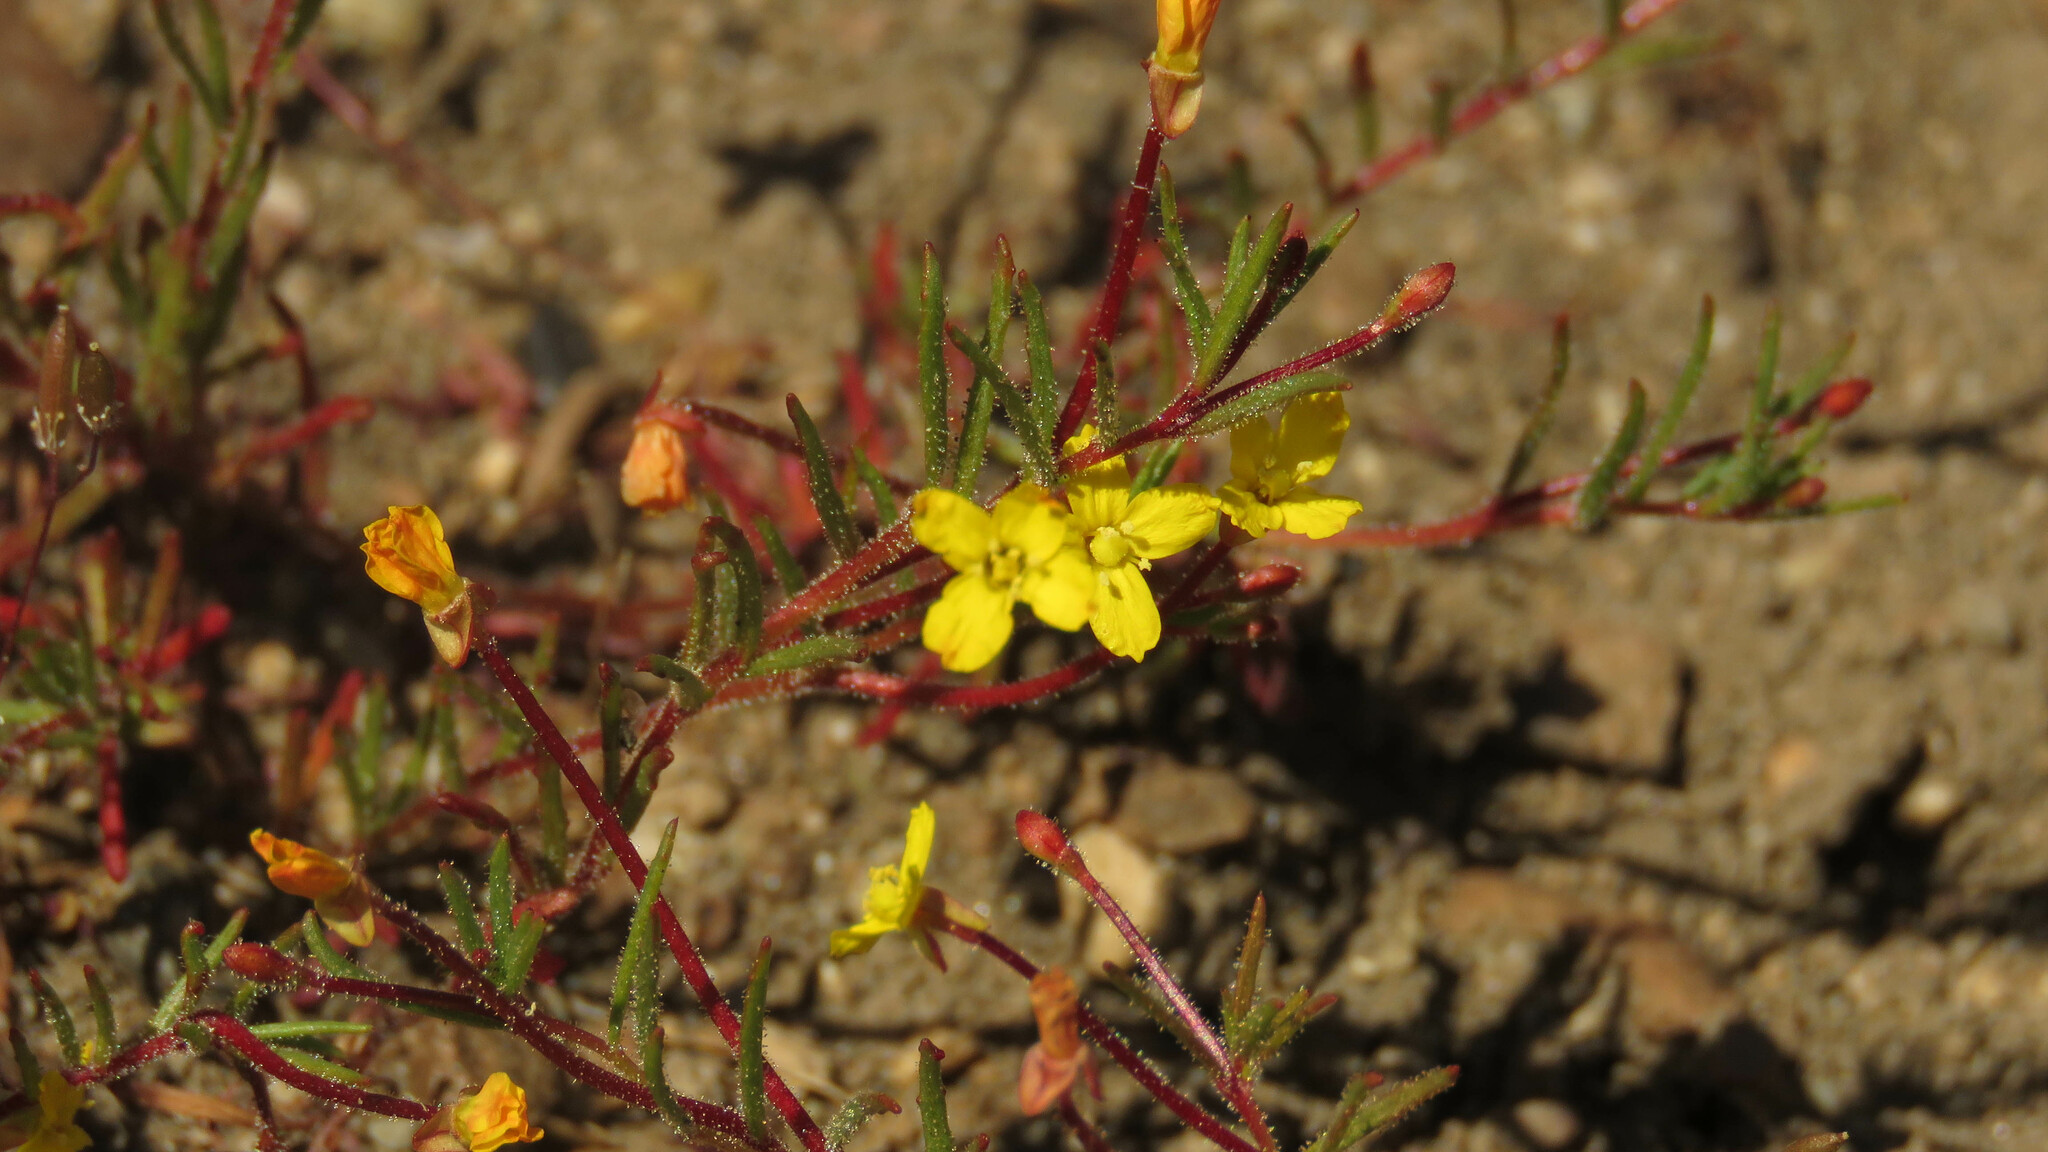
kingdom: Plantae
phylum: Tracheophyta
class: Magnoliopsida
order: Myrtales
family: Onagraceae
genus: Camissonia
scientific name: Camissonia dentata
